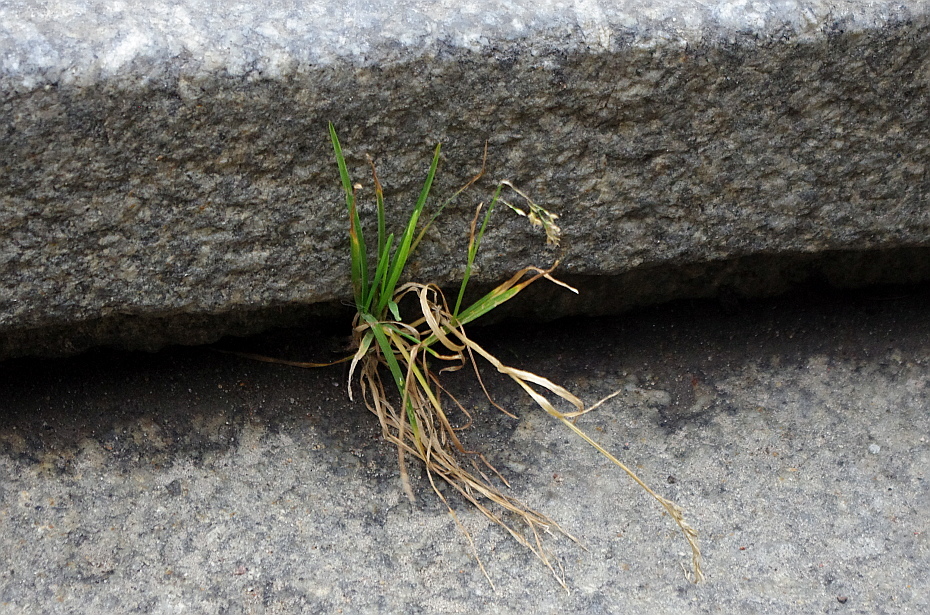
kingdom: Plantae
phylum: Tracheophyta
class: Liliopsida
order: Poales
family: Poaceae
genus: Poa
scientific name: Poa annua
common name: Annual bluegrass
